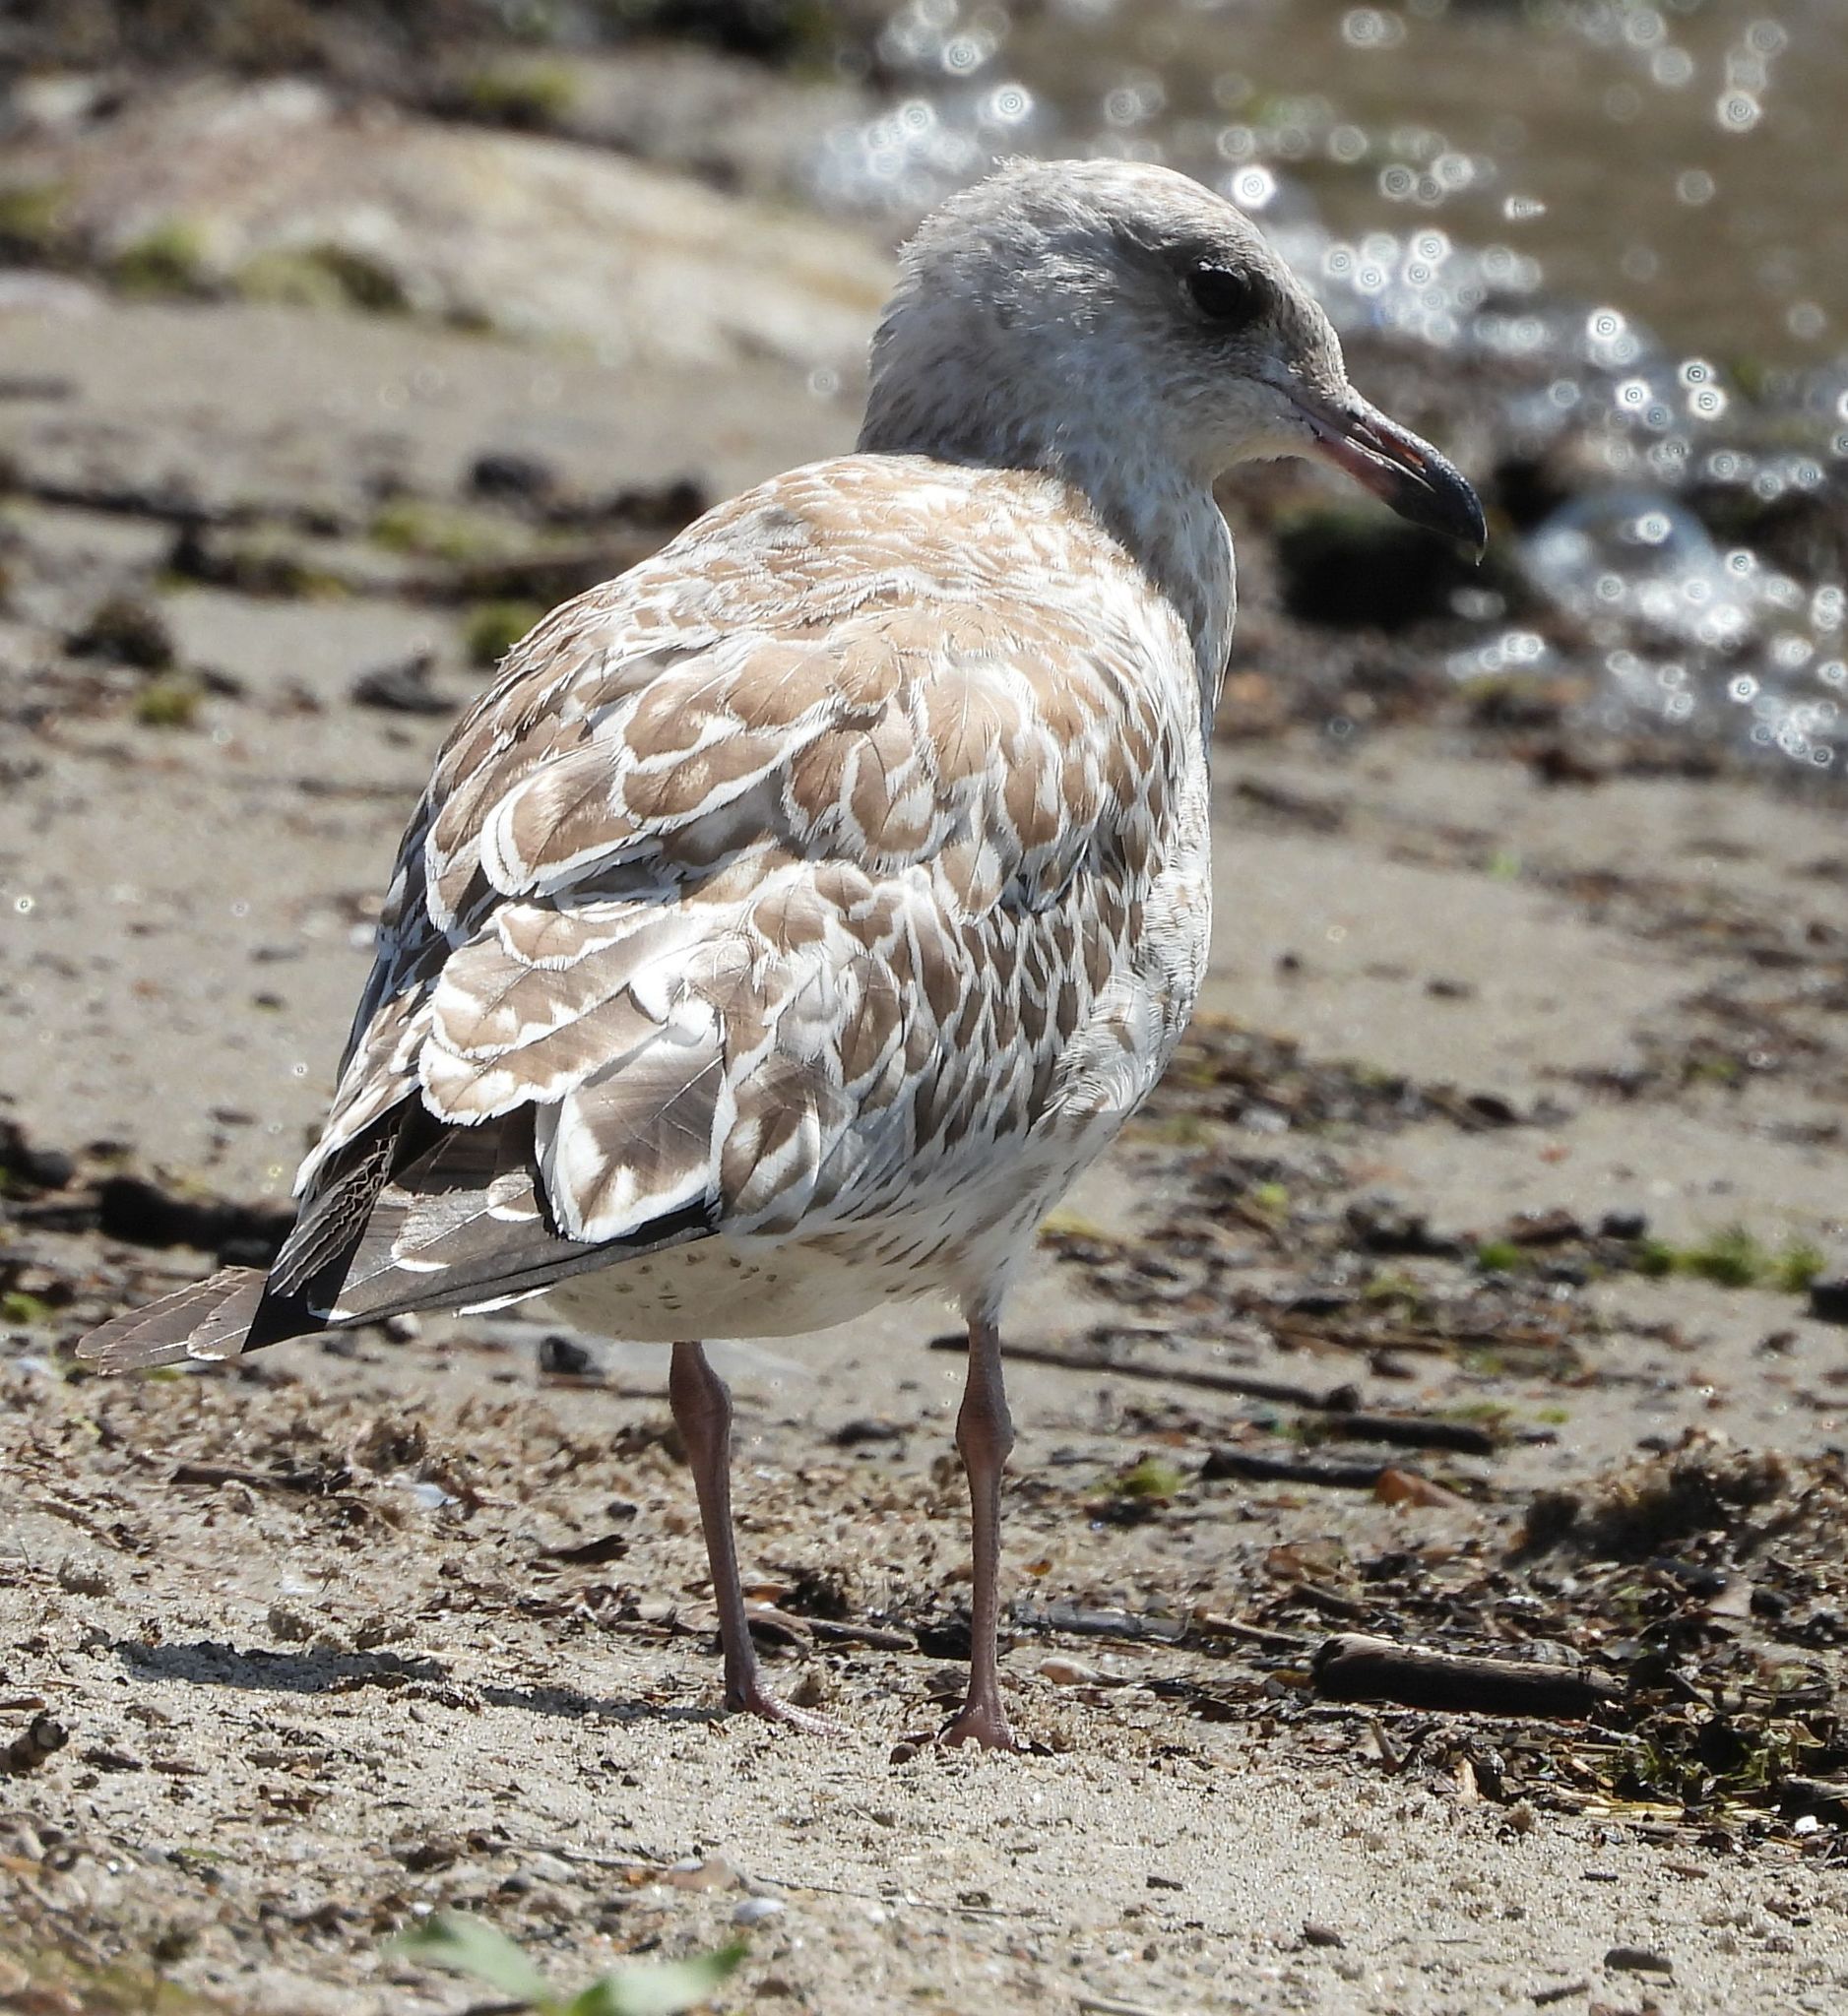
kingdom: Animalia
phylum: Chordata
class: Aves
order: Charadriiformes
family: Laridae
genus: Larus
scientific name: Larus delawarensis
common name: Ring-billed gull
